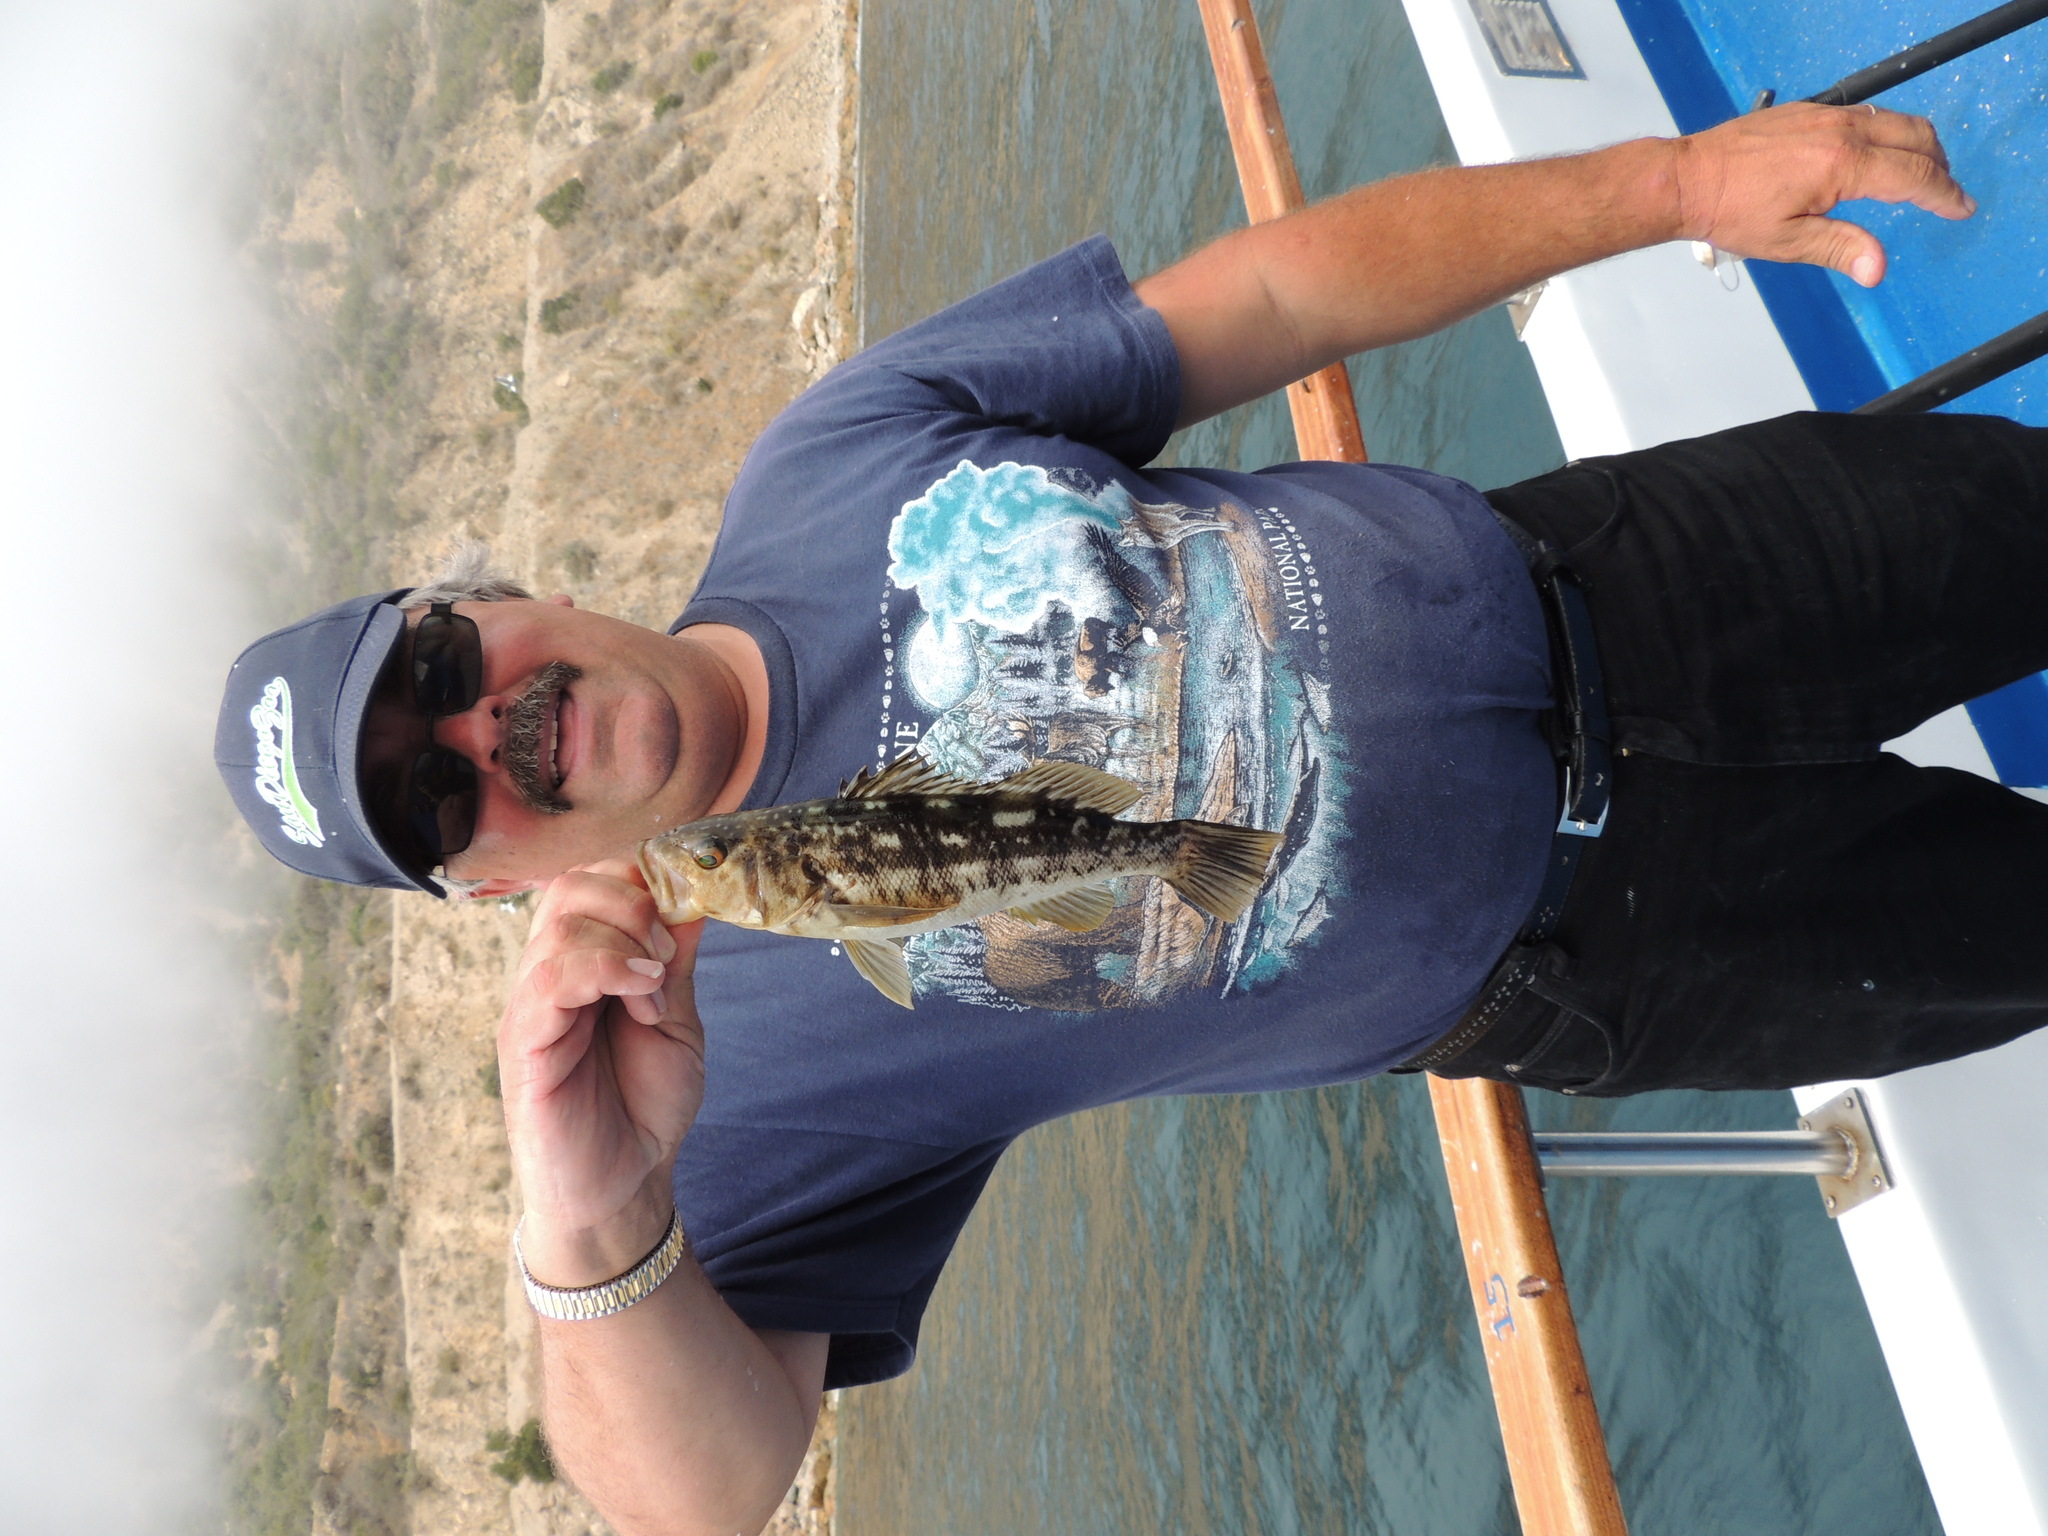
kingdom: Animalia
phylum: Chordata
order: Perciformes
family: Serranidae
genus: Paralabrax
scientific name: Paralabrax clathratus
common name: Kelp bass
